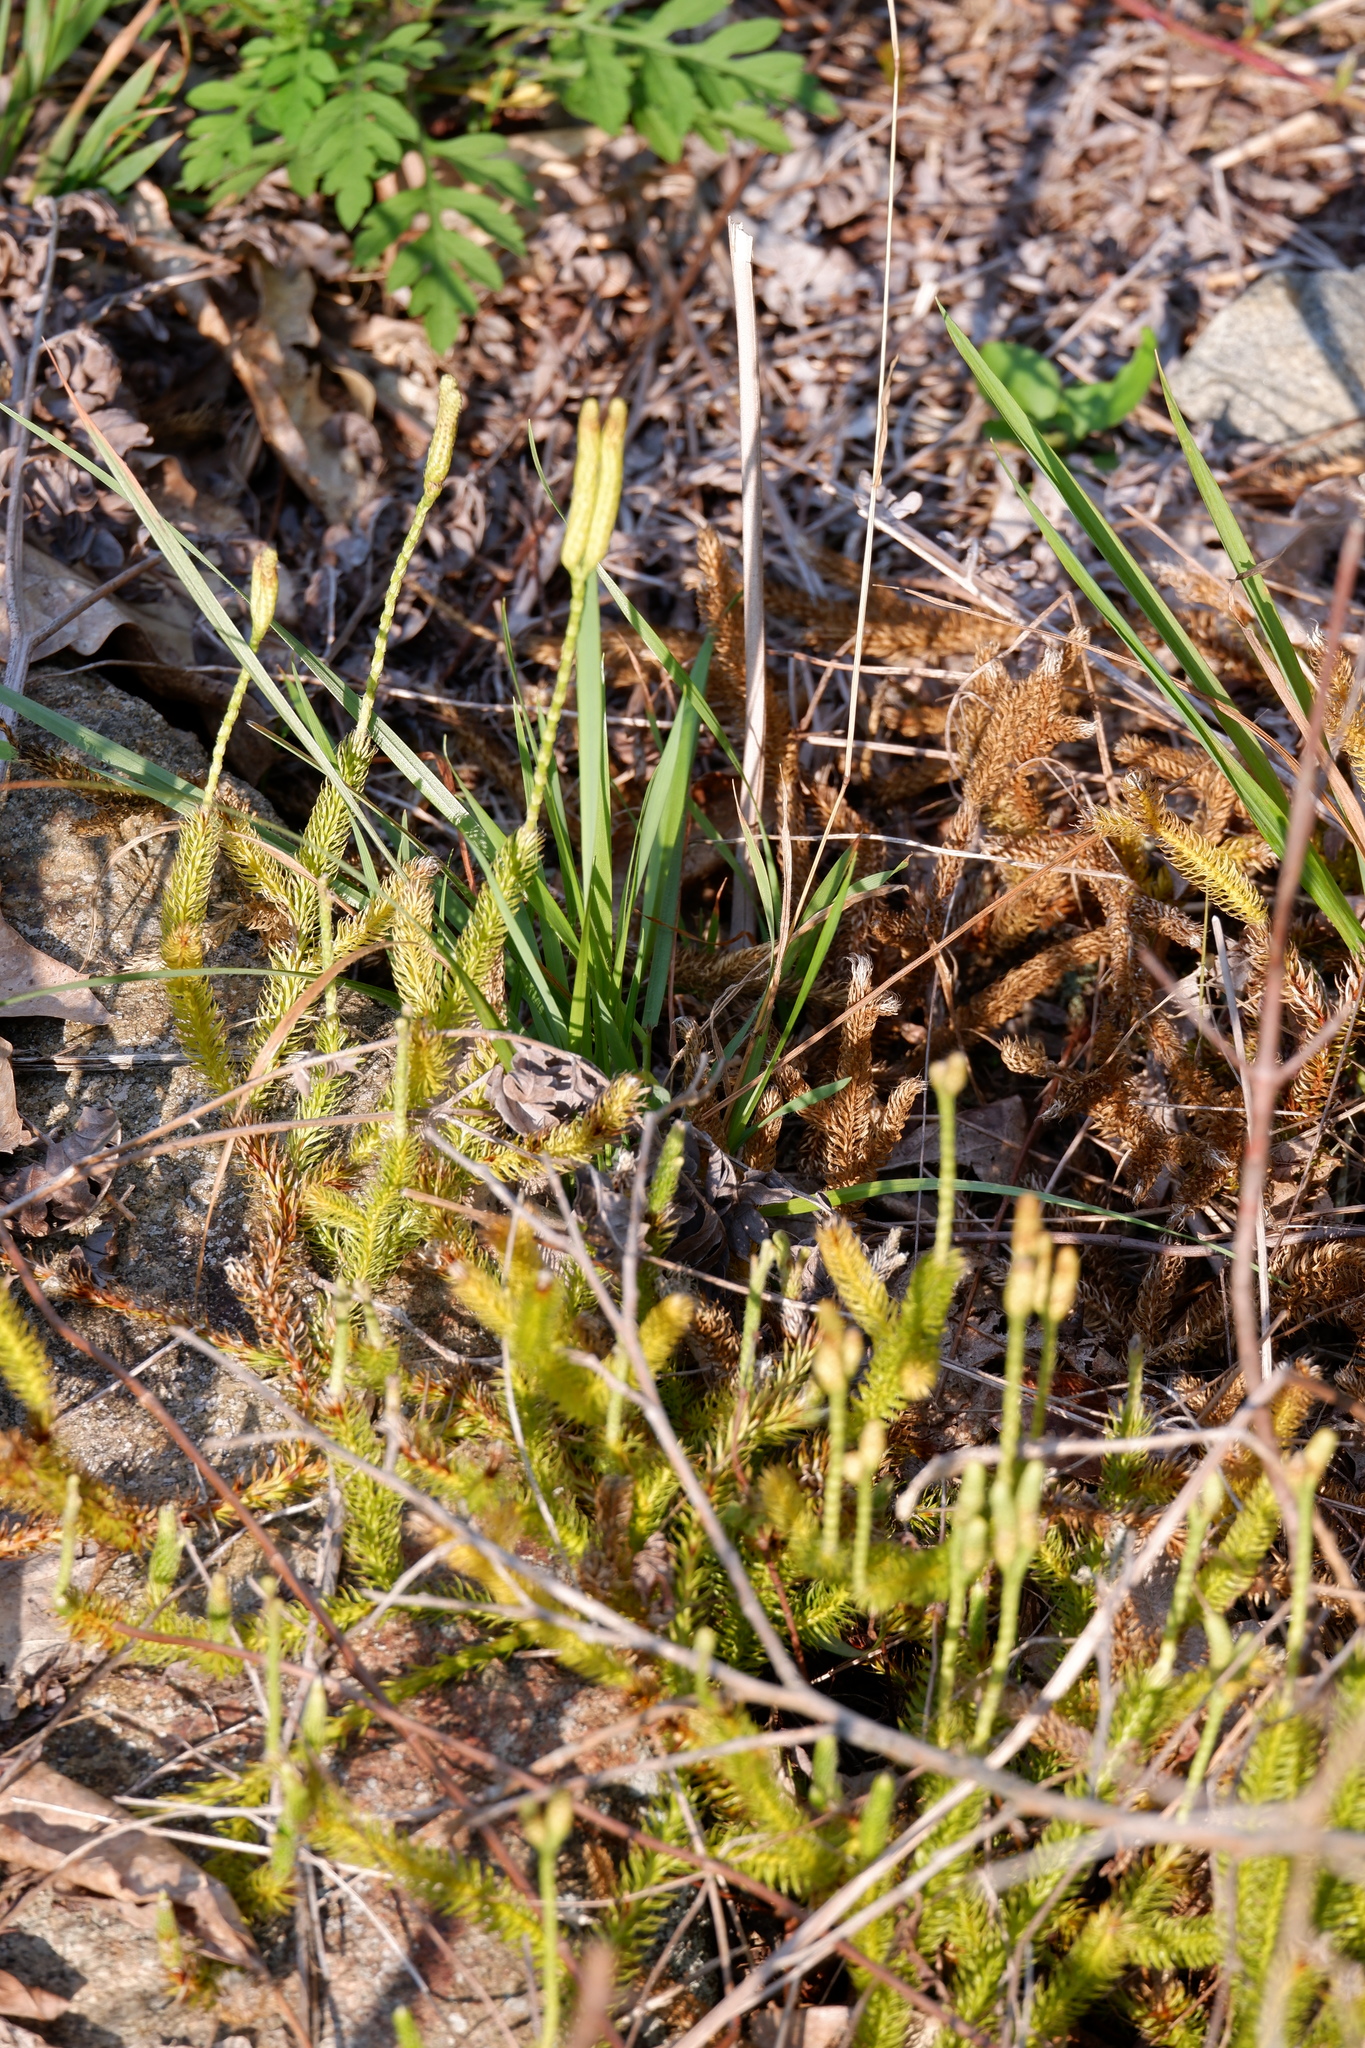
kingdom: Plantae
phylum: Tracheophyta
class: Lycopodiopsida
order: Lycopodiales
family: Lycopodiaceae
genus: Lycopodium
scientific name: Lycopodium clavatum
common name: Stag's-horn clubmoss
